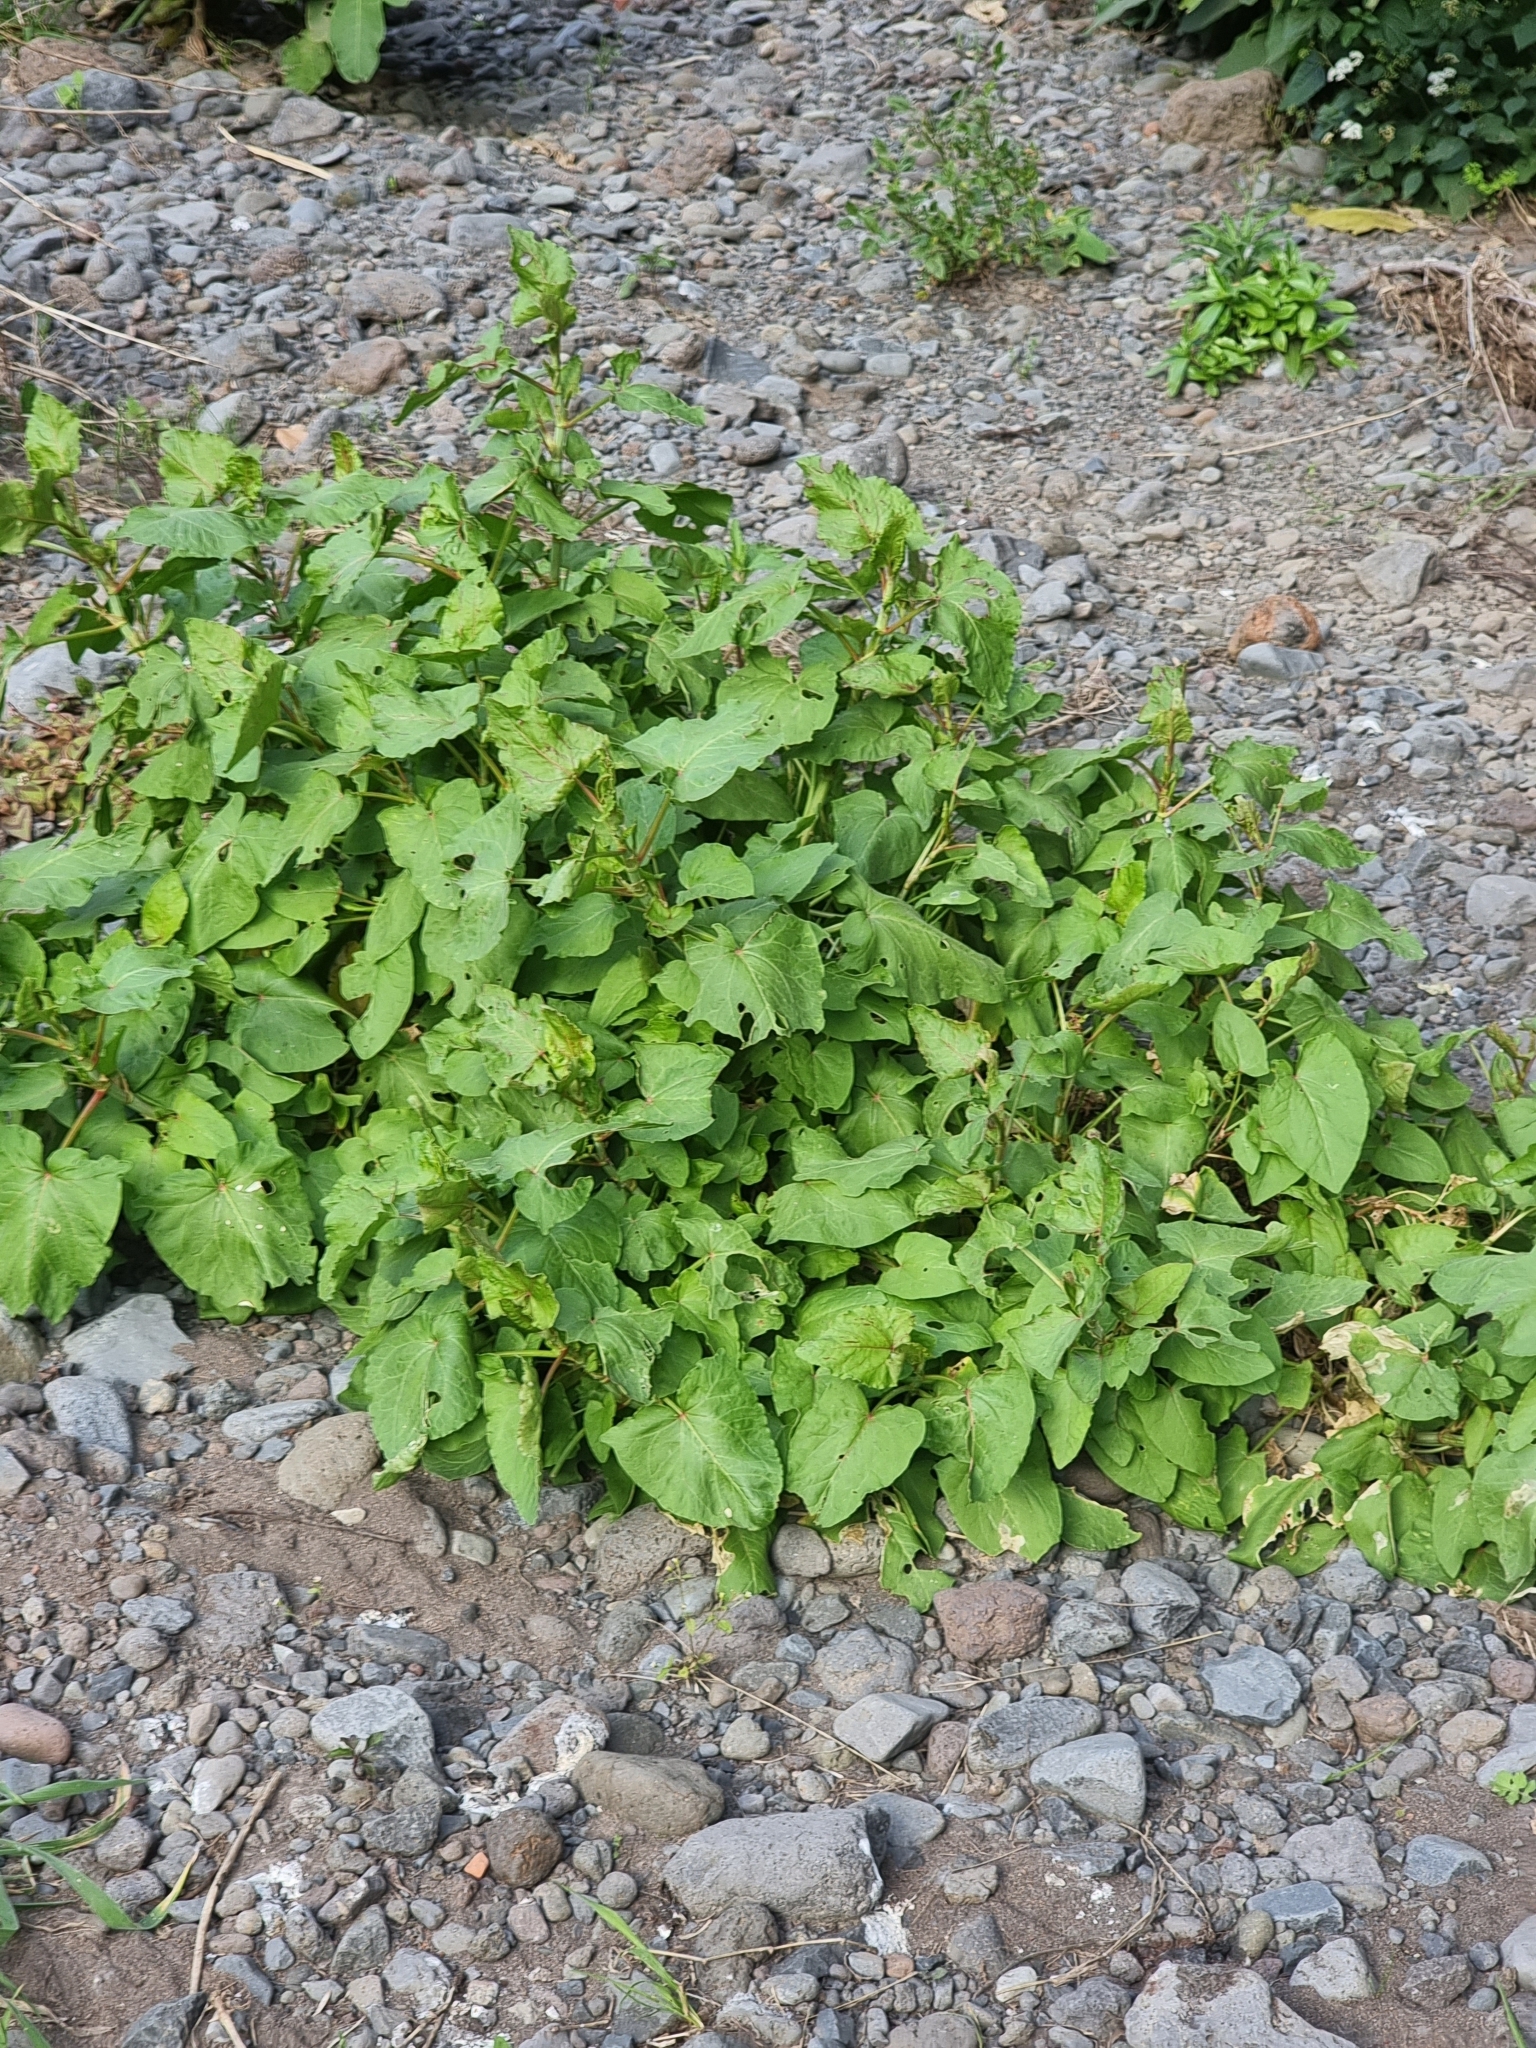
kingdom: Plantae
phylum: Tracheophyta
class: Magnoliopsida
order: Caryophyllales
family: Polygonaceae
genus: Rumex
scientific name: Rumex maderensis
